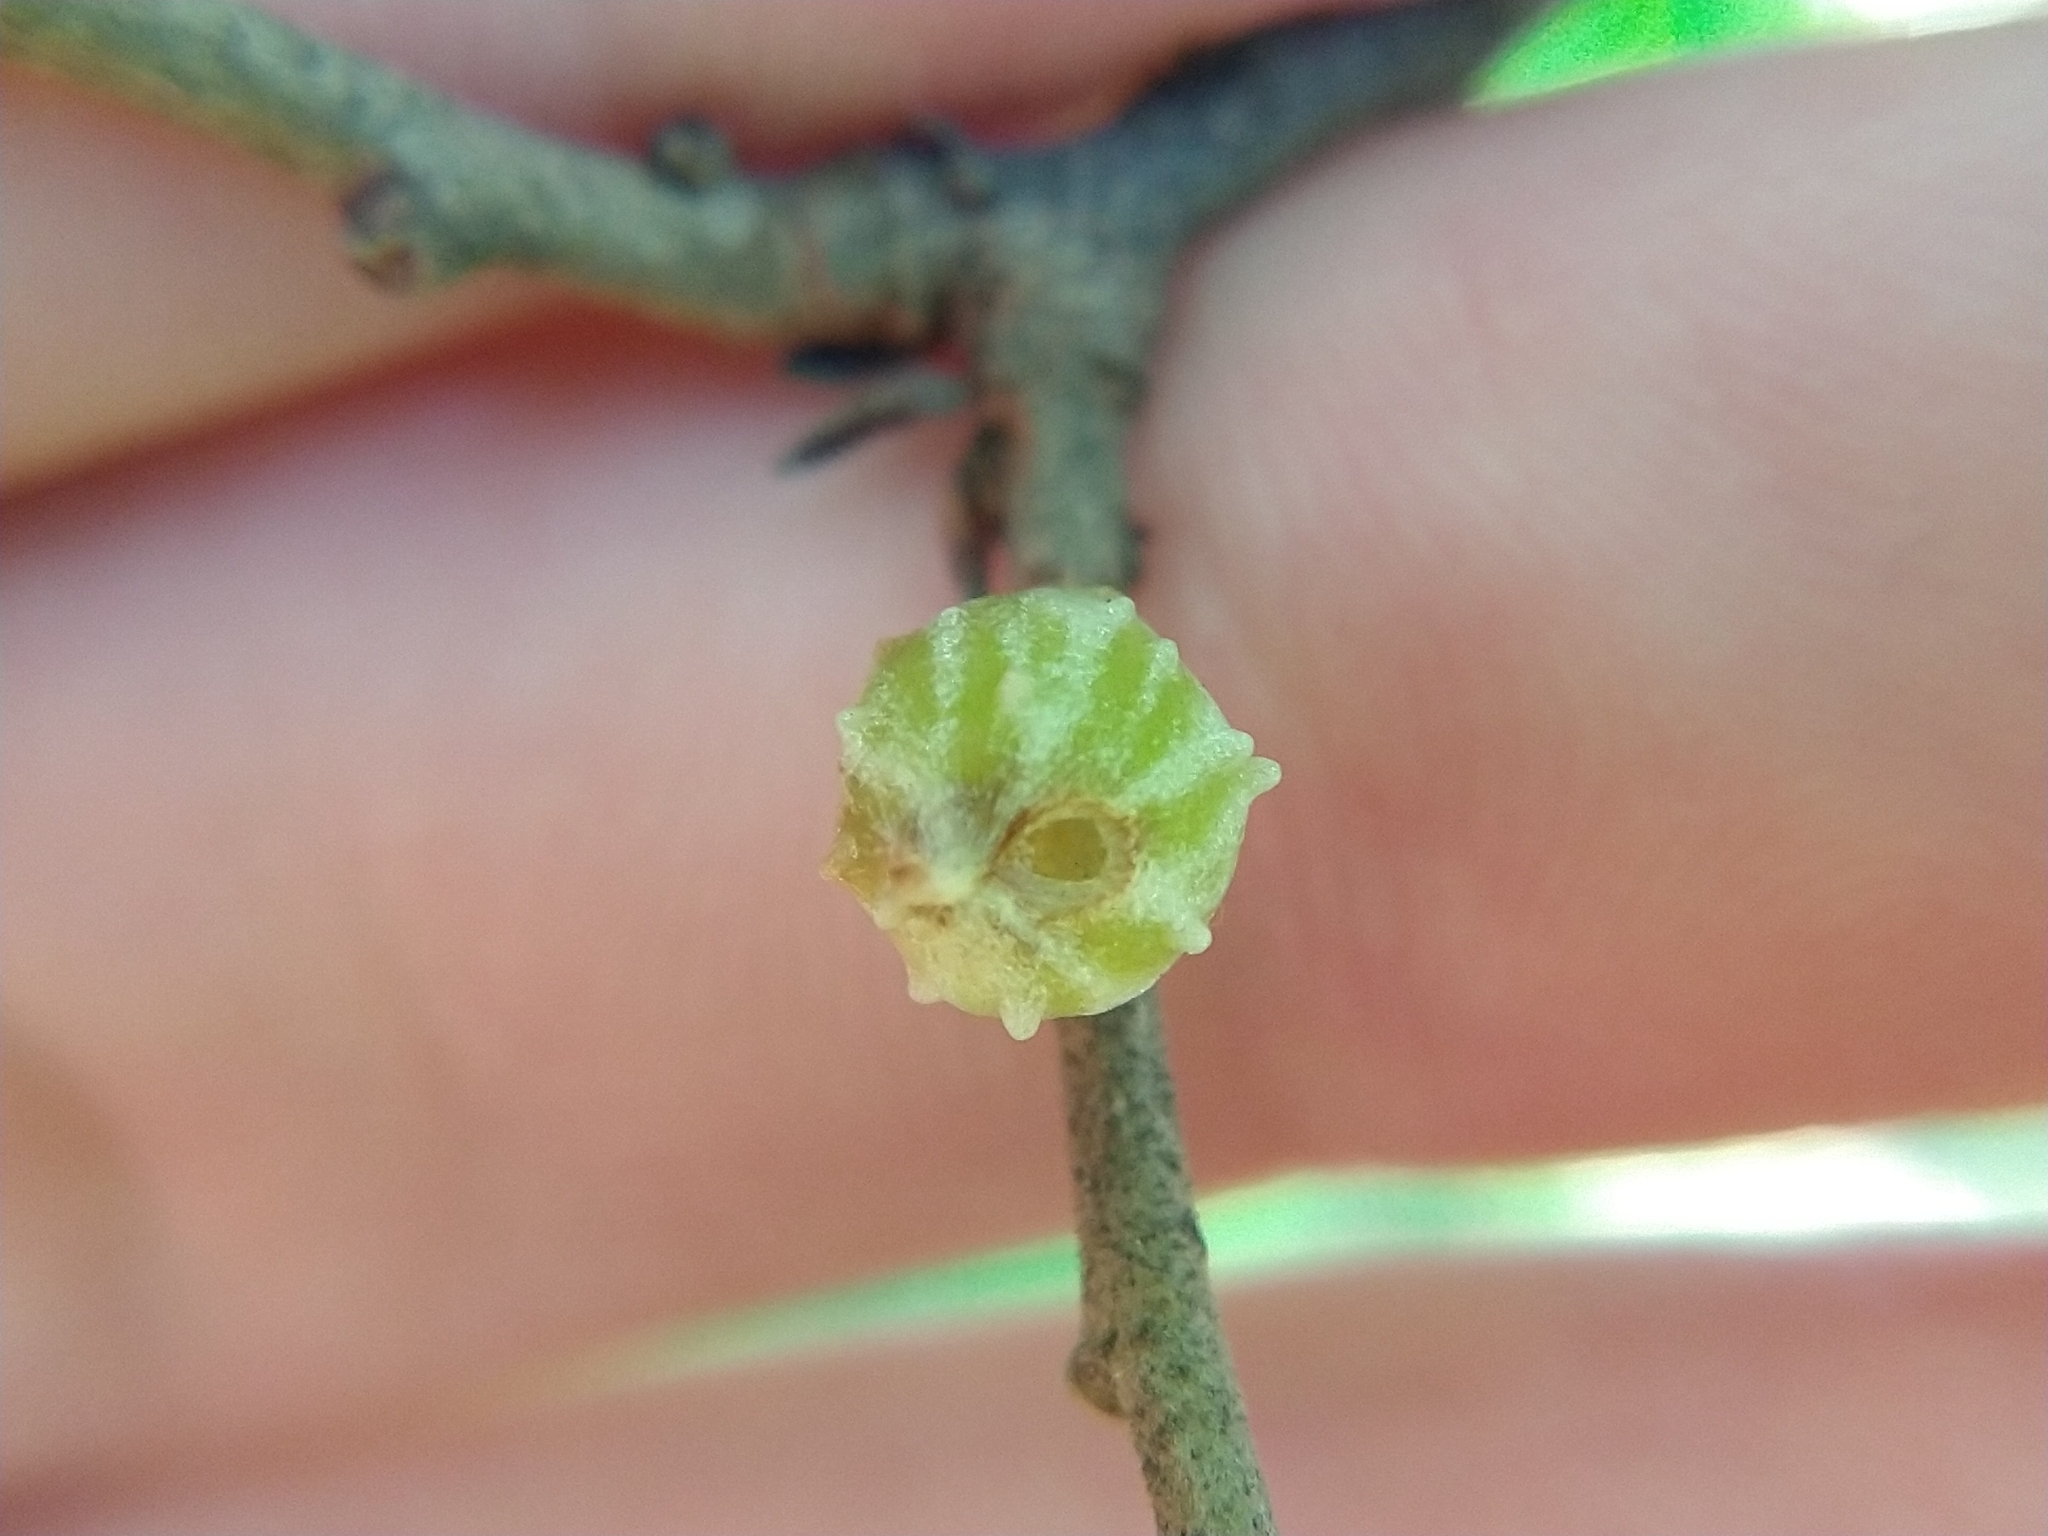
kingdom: Animalia
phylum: Arthropoda
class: Insecta
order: Hymenoptera
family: Cynipidae
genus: Cynips
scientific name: Cynips douglasi
